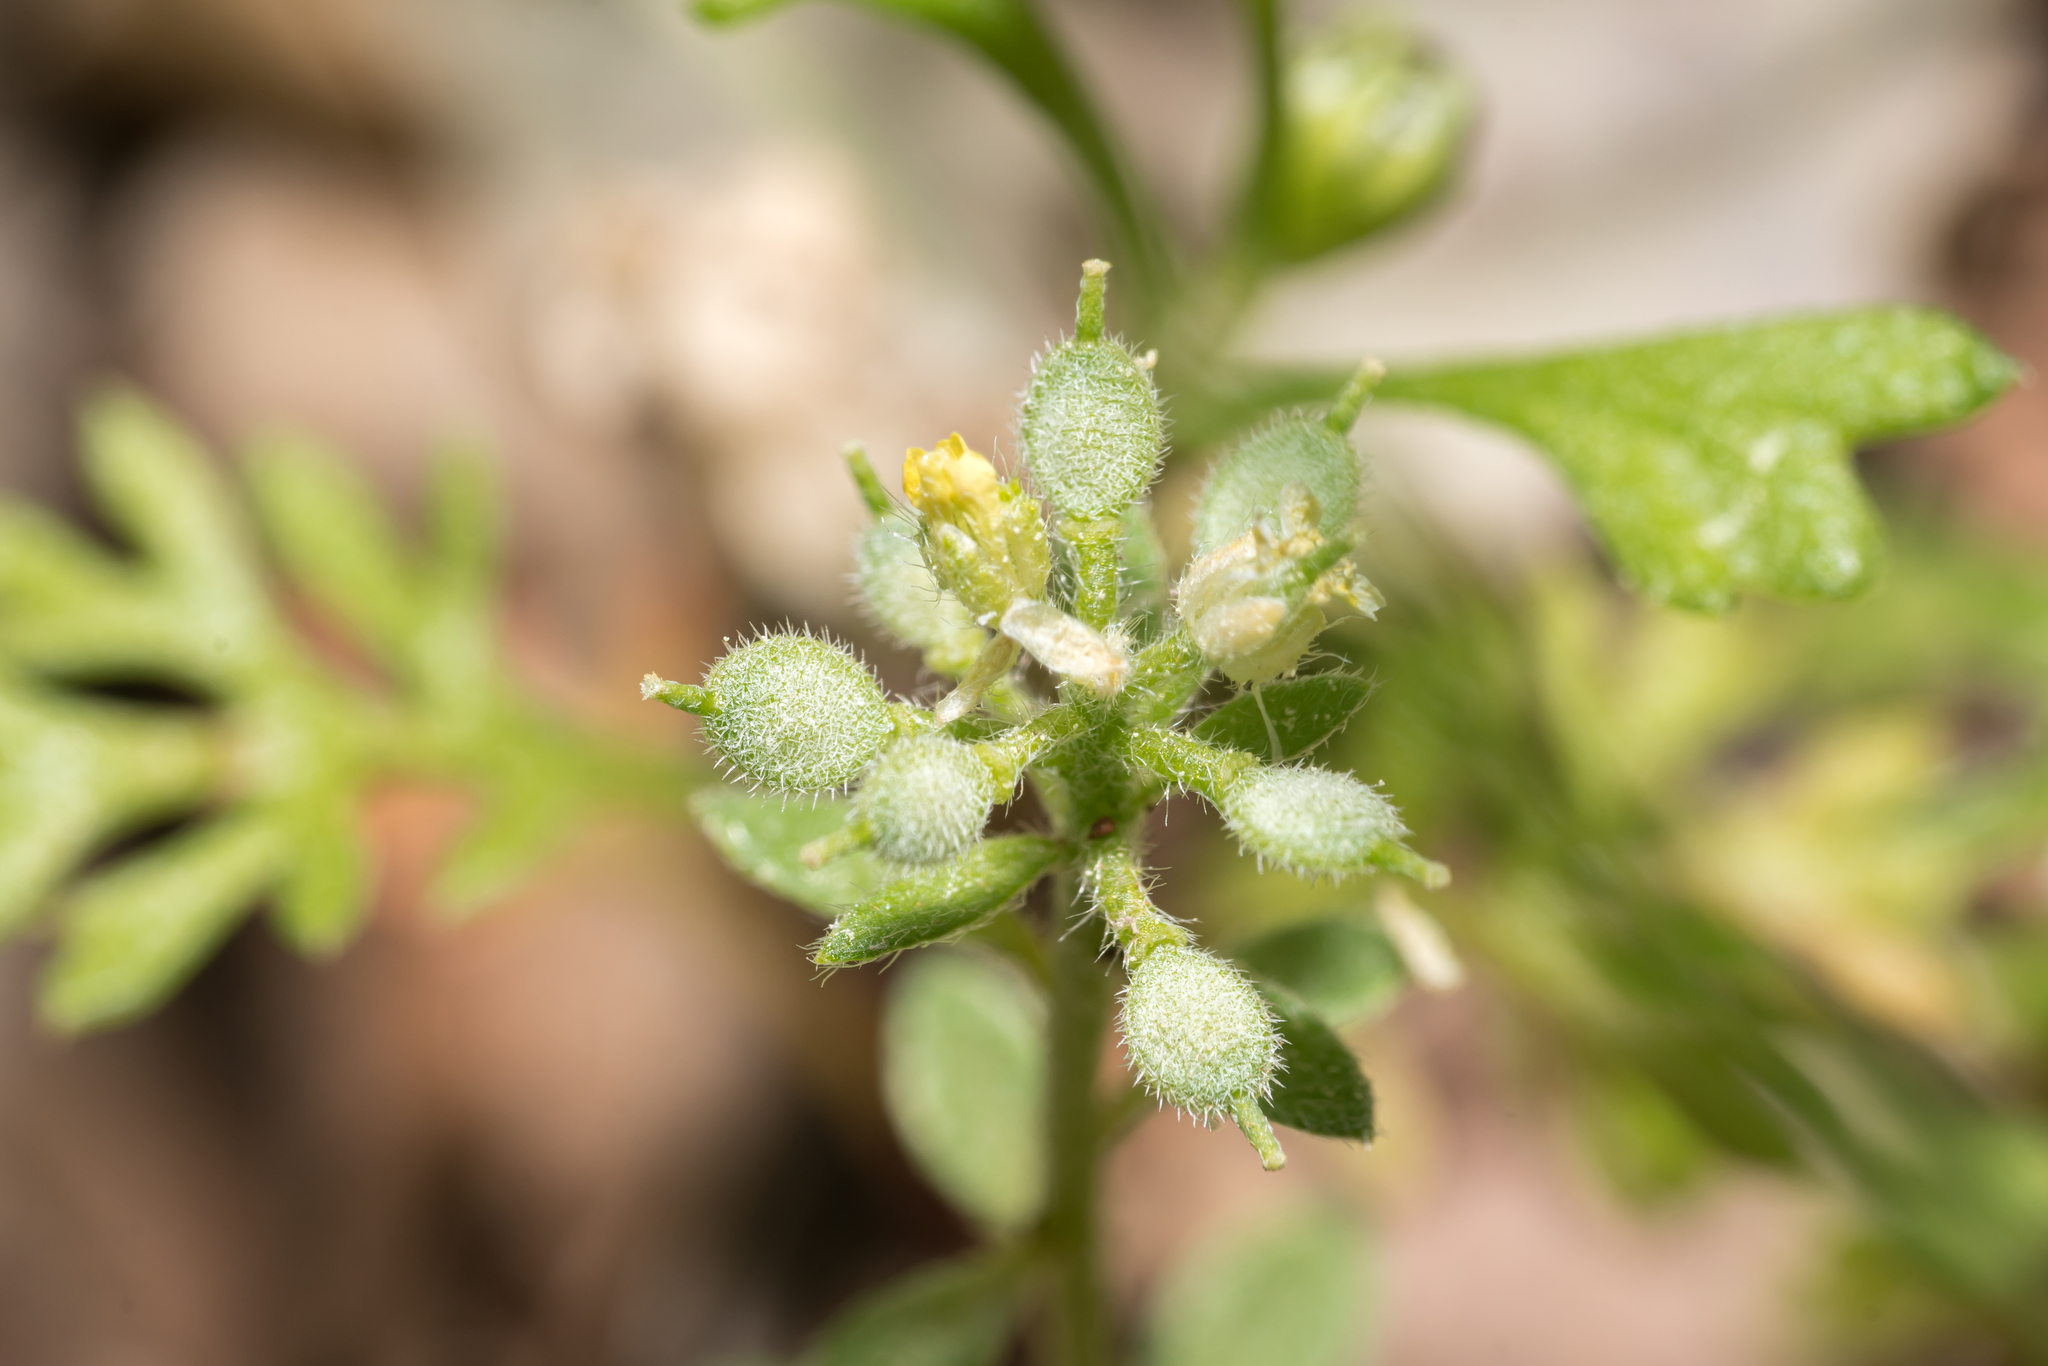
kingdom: Plantae
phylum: Tracheophyta
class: Magnoliopsida
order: Brassicales
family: Brassicaceae
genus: Alyssum
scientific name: Alyssum simplex
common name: Alyssum
